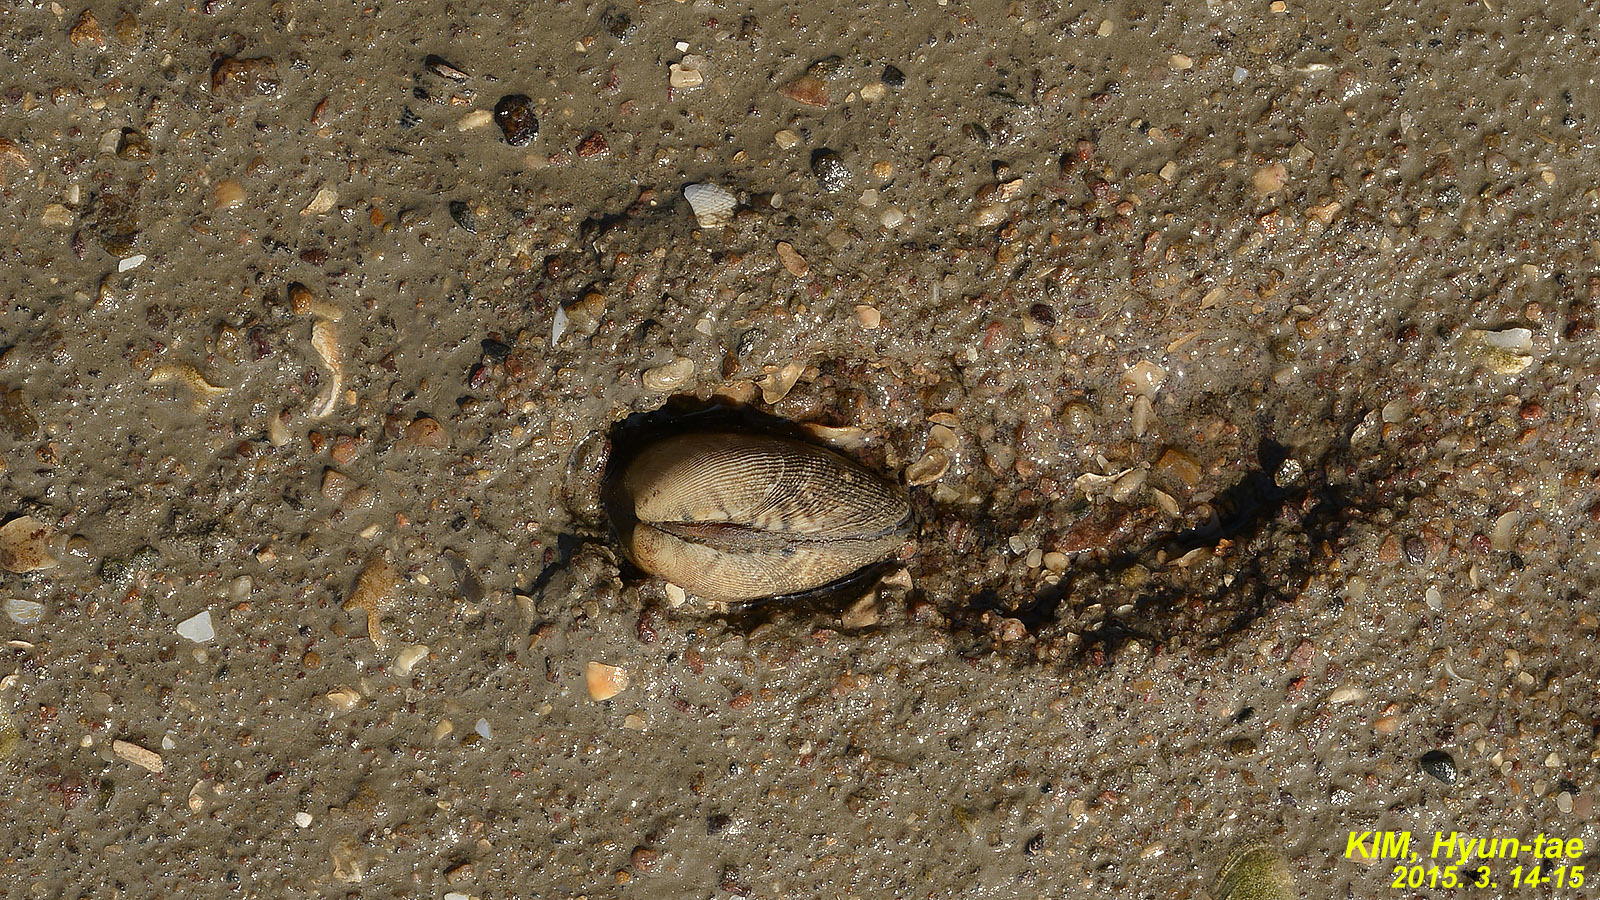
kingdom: Animalia
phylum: Mollusca
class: Bivalvia
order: Venerida
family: Veneridae
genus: Ruditapes
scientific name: Ruditapes philippinarum
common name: Manila clam
